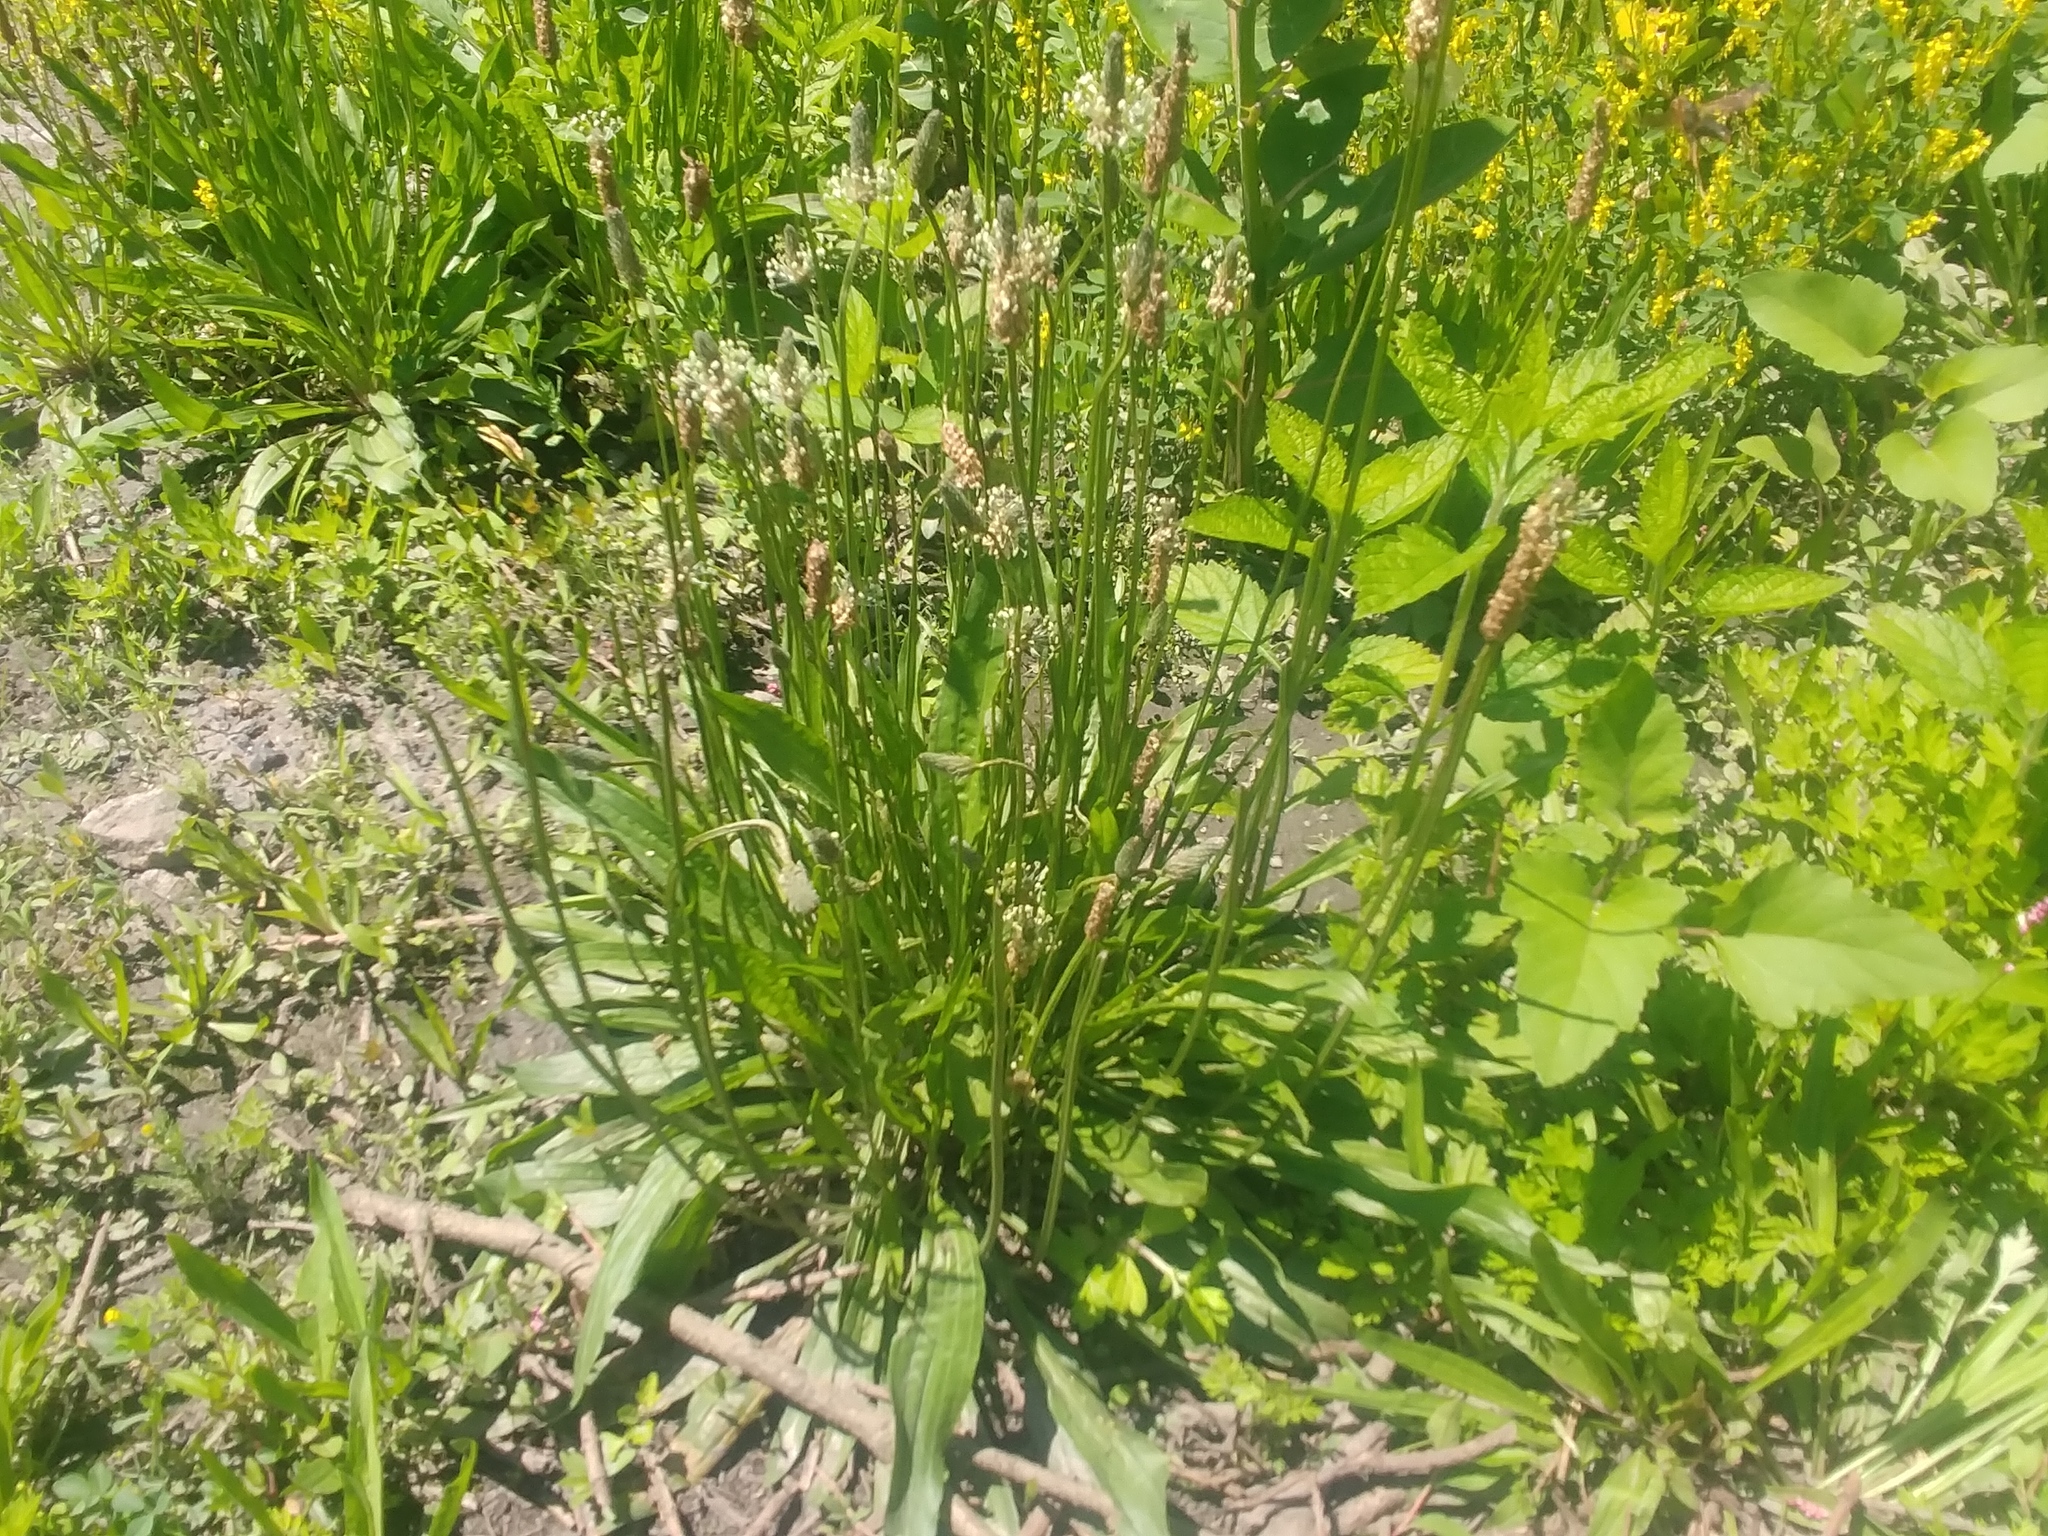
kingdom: Plantae
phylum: Tracheophyta
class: Magnoliopsida
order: Lamiales
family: Plantaginaceae
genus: Plantago
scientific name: Plantago lanceolata
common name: Ribwort plantain
